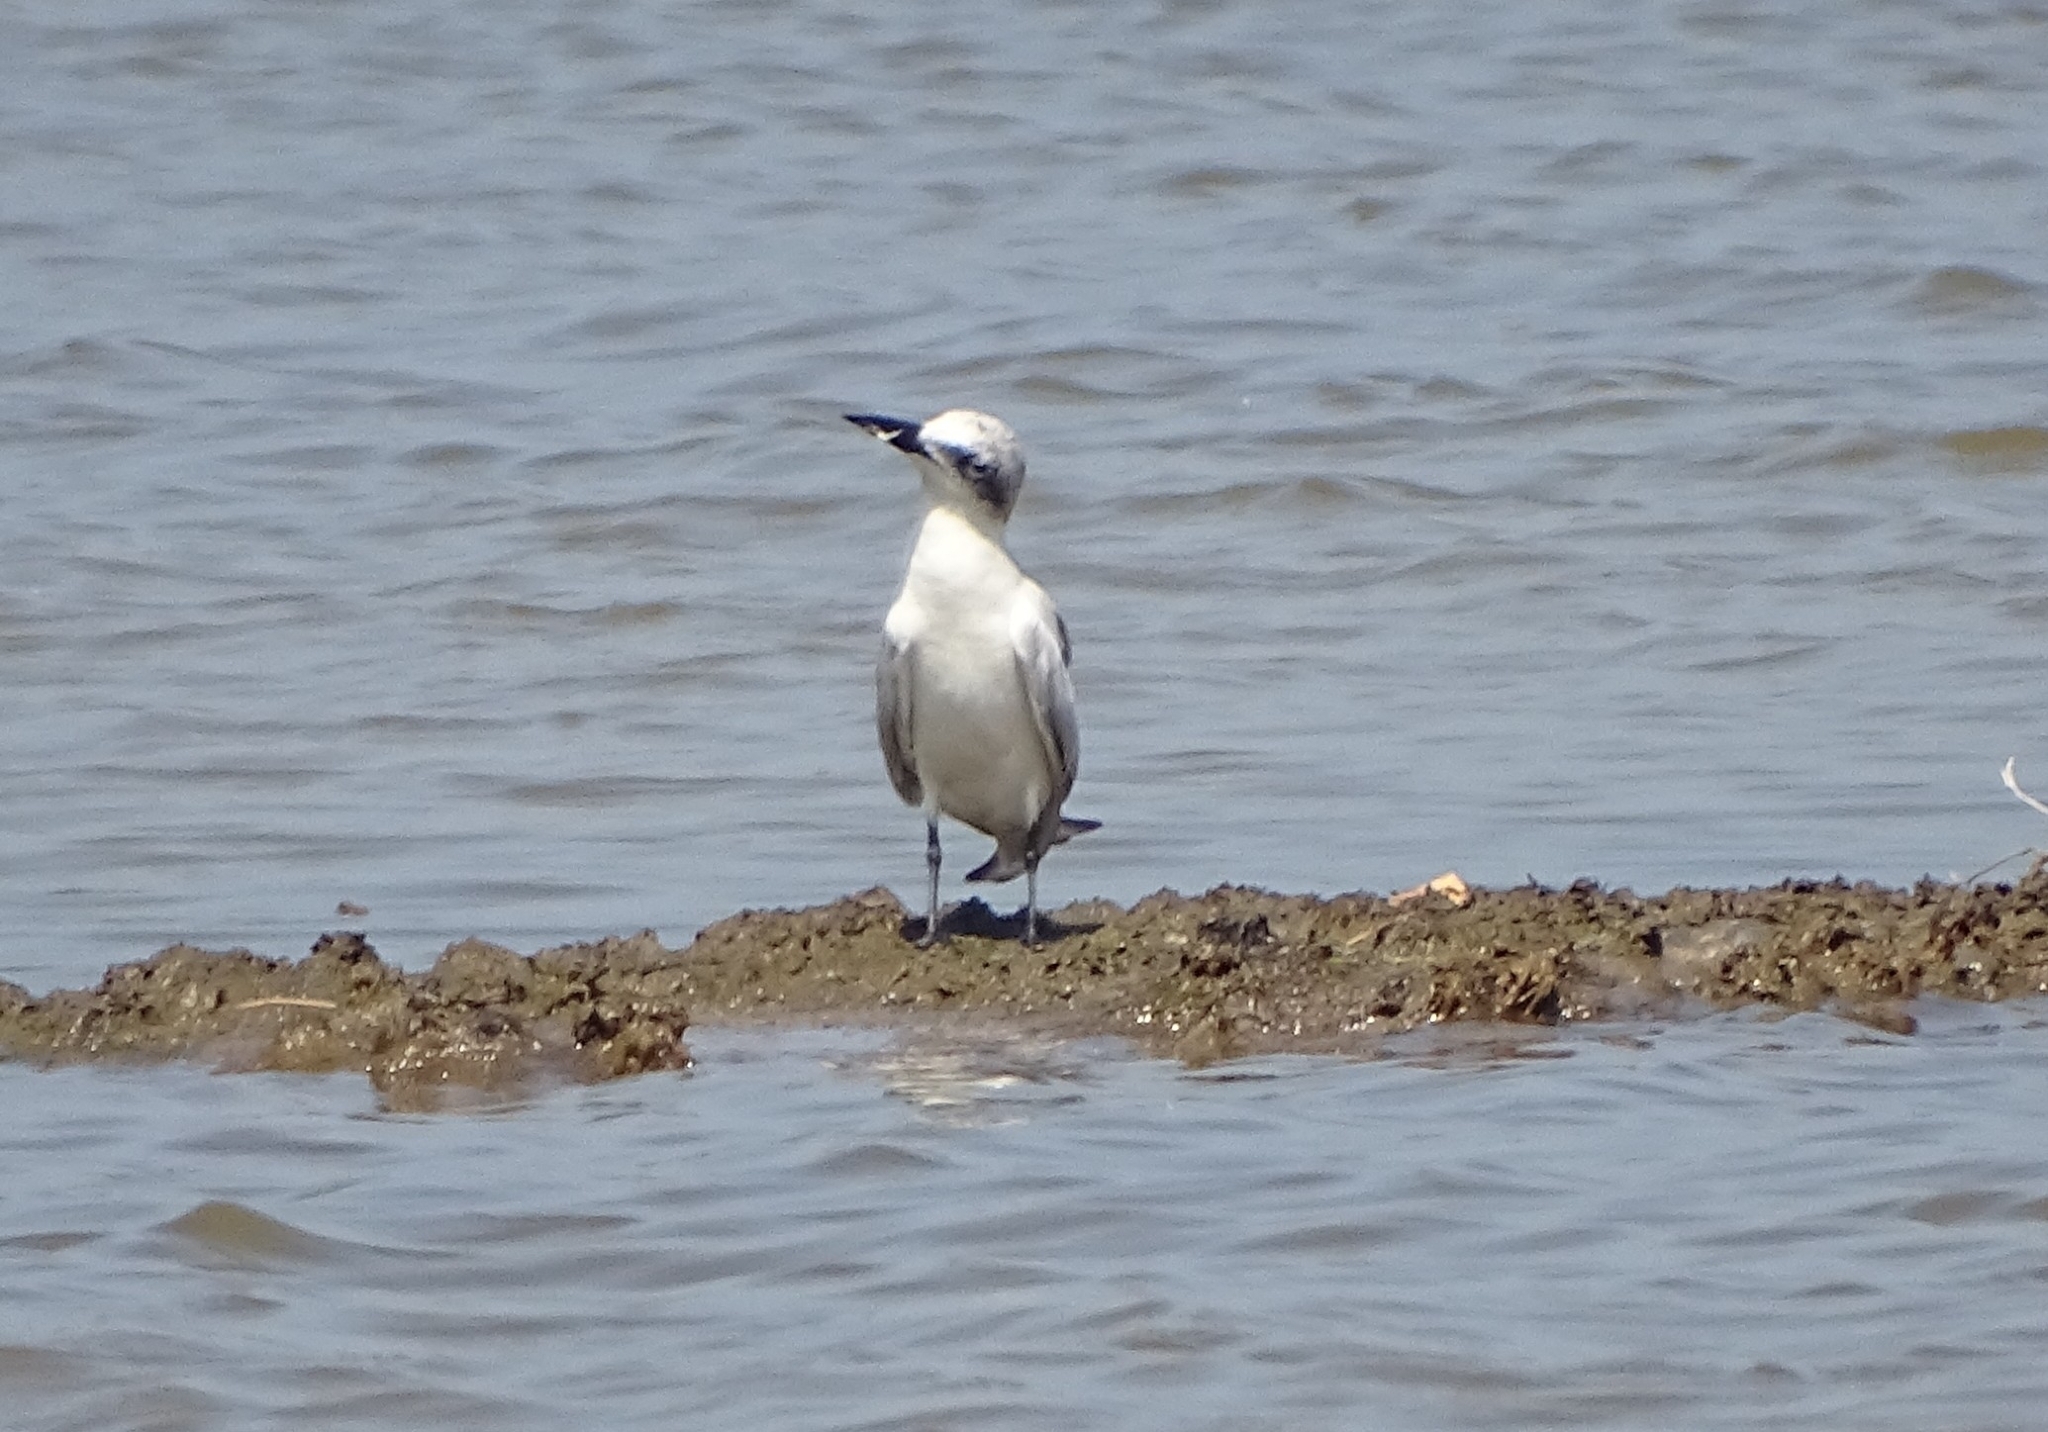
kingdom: Animalia
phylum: Chordata
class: Aves
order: Charadriiformes
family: Laridae
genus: Gelochelidon
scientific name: Gelochelidon nilotica
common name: Gull-billed tern
